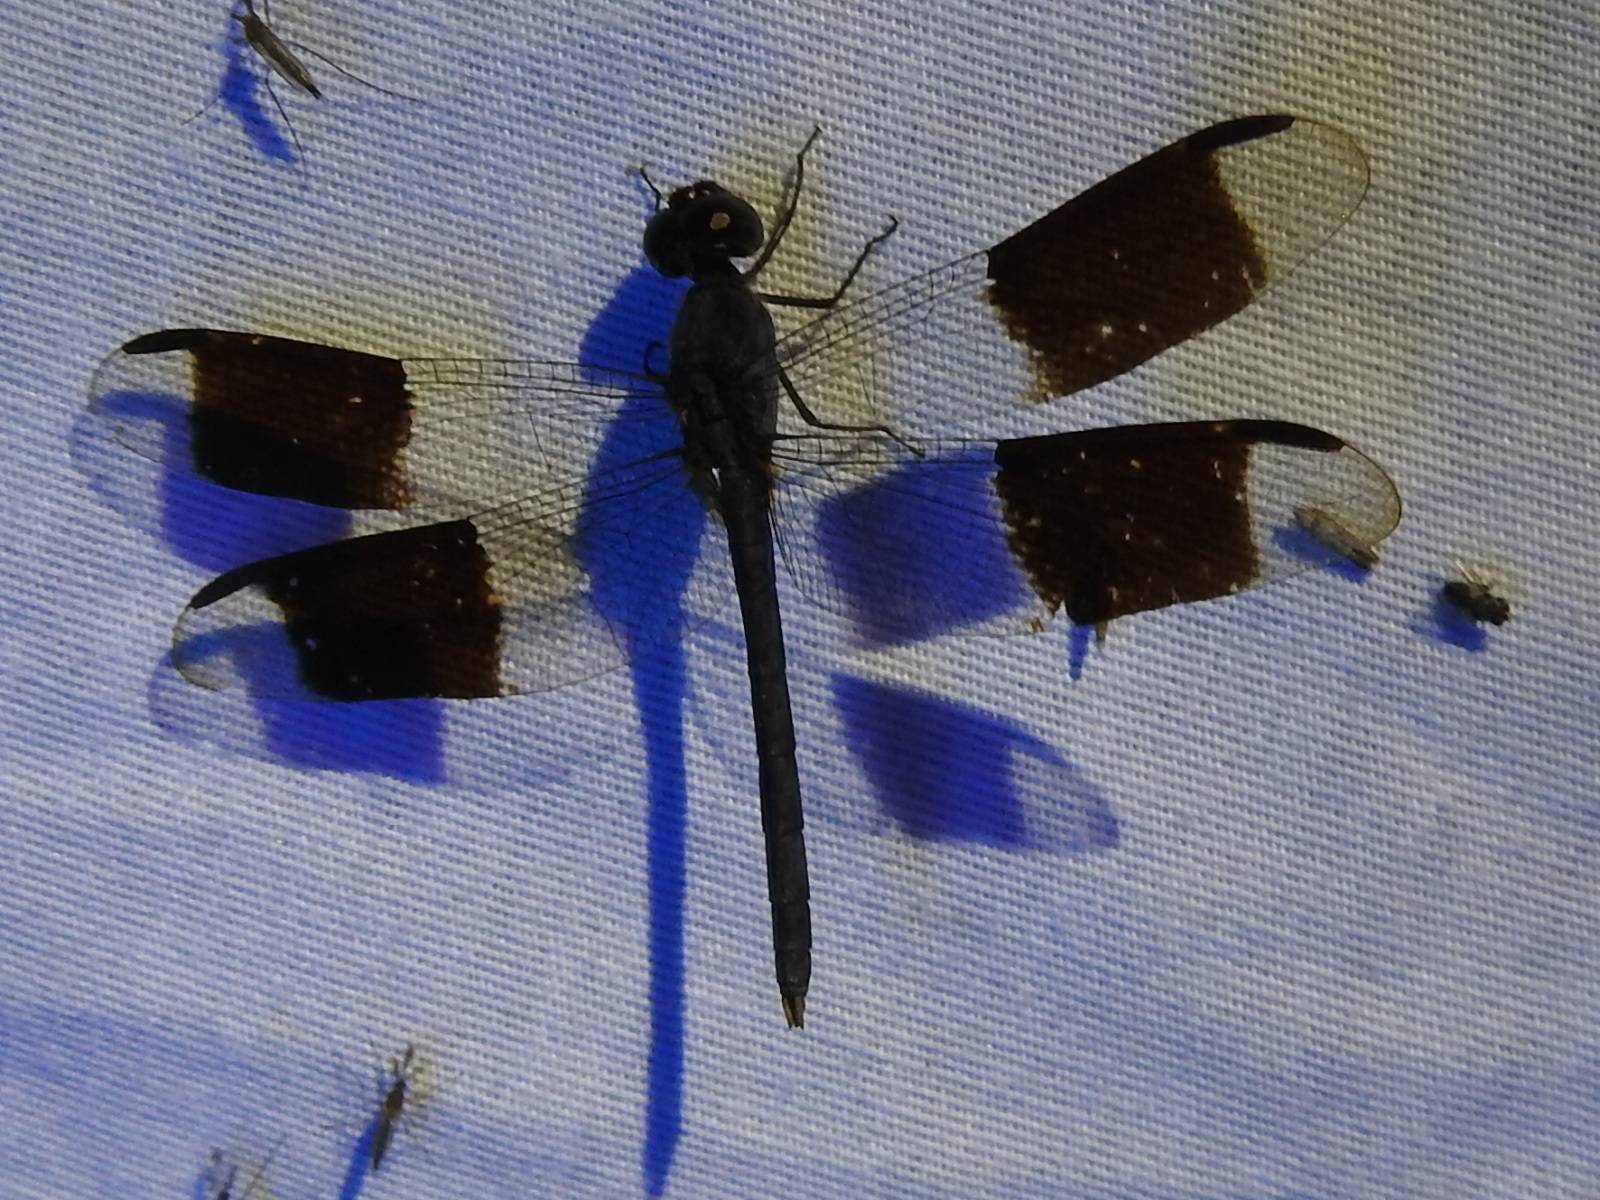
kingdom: Animalia
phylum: Arthropoda
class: Insecta
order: Odonata
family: Libellulidae
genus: Erythrodiplax
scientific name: Erythrodiplax umbrata
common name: Band-winged dragonlet
